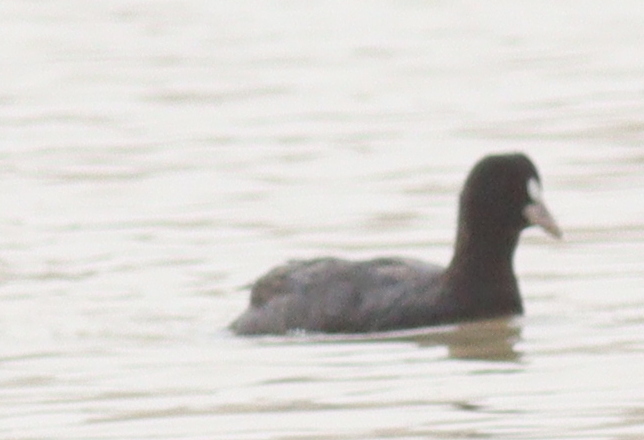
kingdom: Animalia
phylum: Chordata
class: Aves
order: Gruiformes
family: Rallidae
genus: Fulica
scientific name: Fulica atra
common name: Eurasian coot
